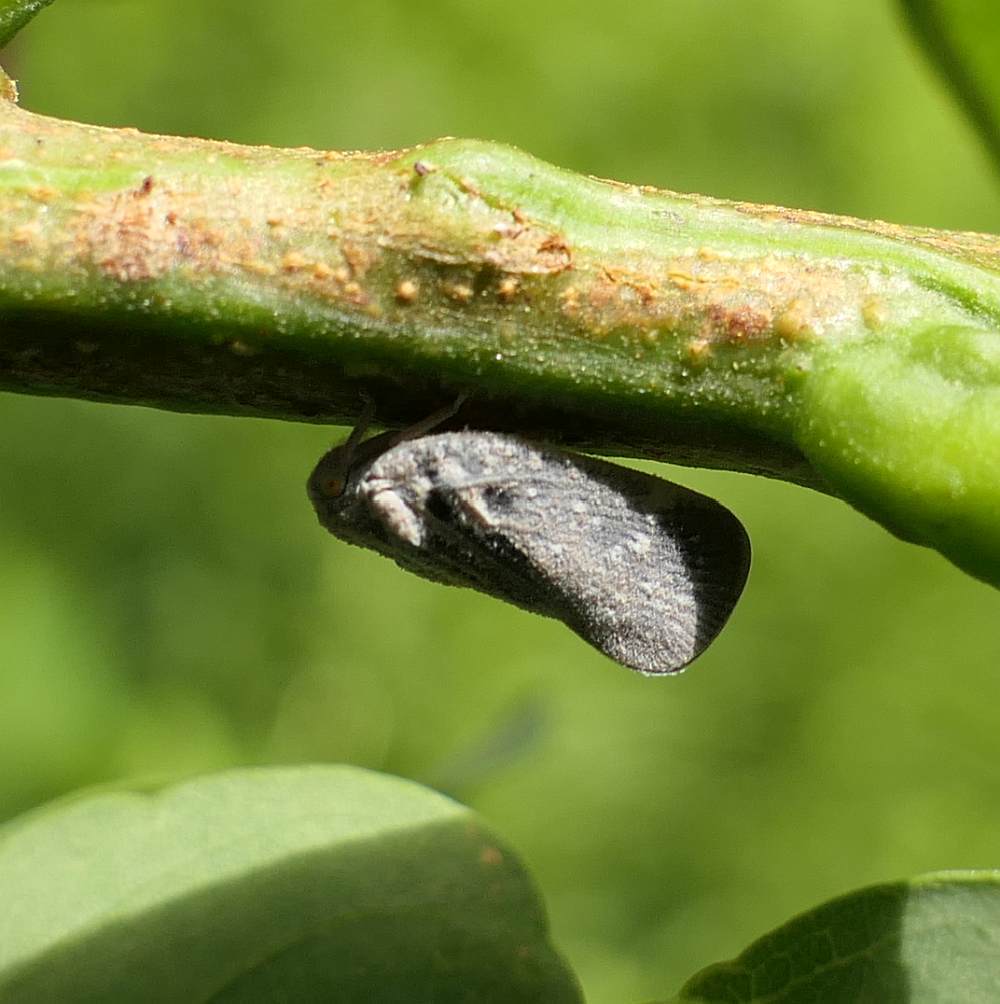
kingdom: Animalia
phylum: Arthropoda
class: Insecta
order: Hemiptera
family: Flatidae
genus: Metcalfa
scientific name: Metcalfa pruinosa
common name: Citrus flatid planthopper
